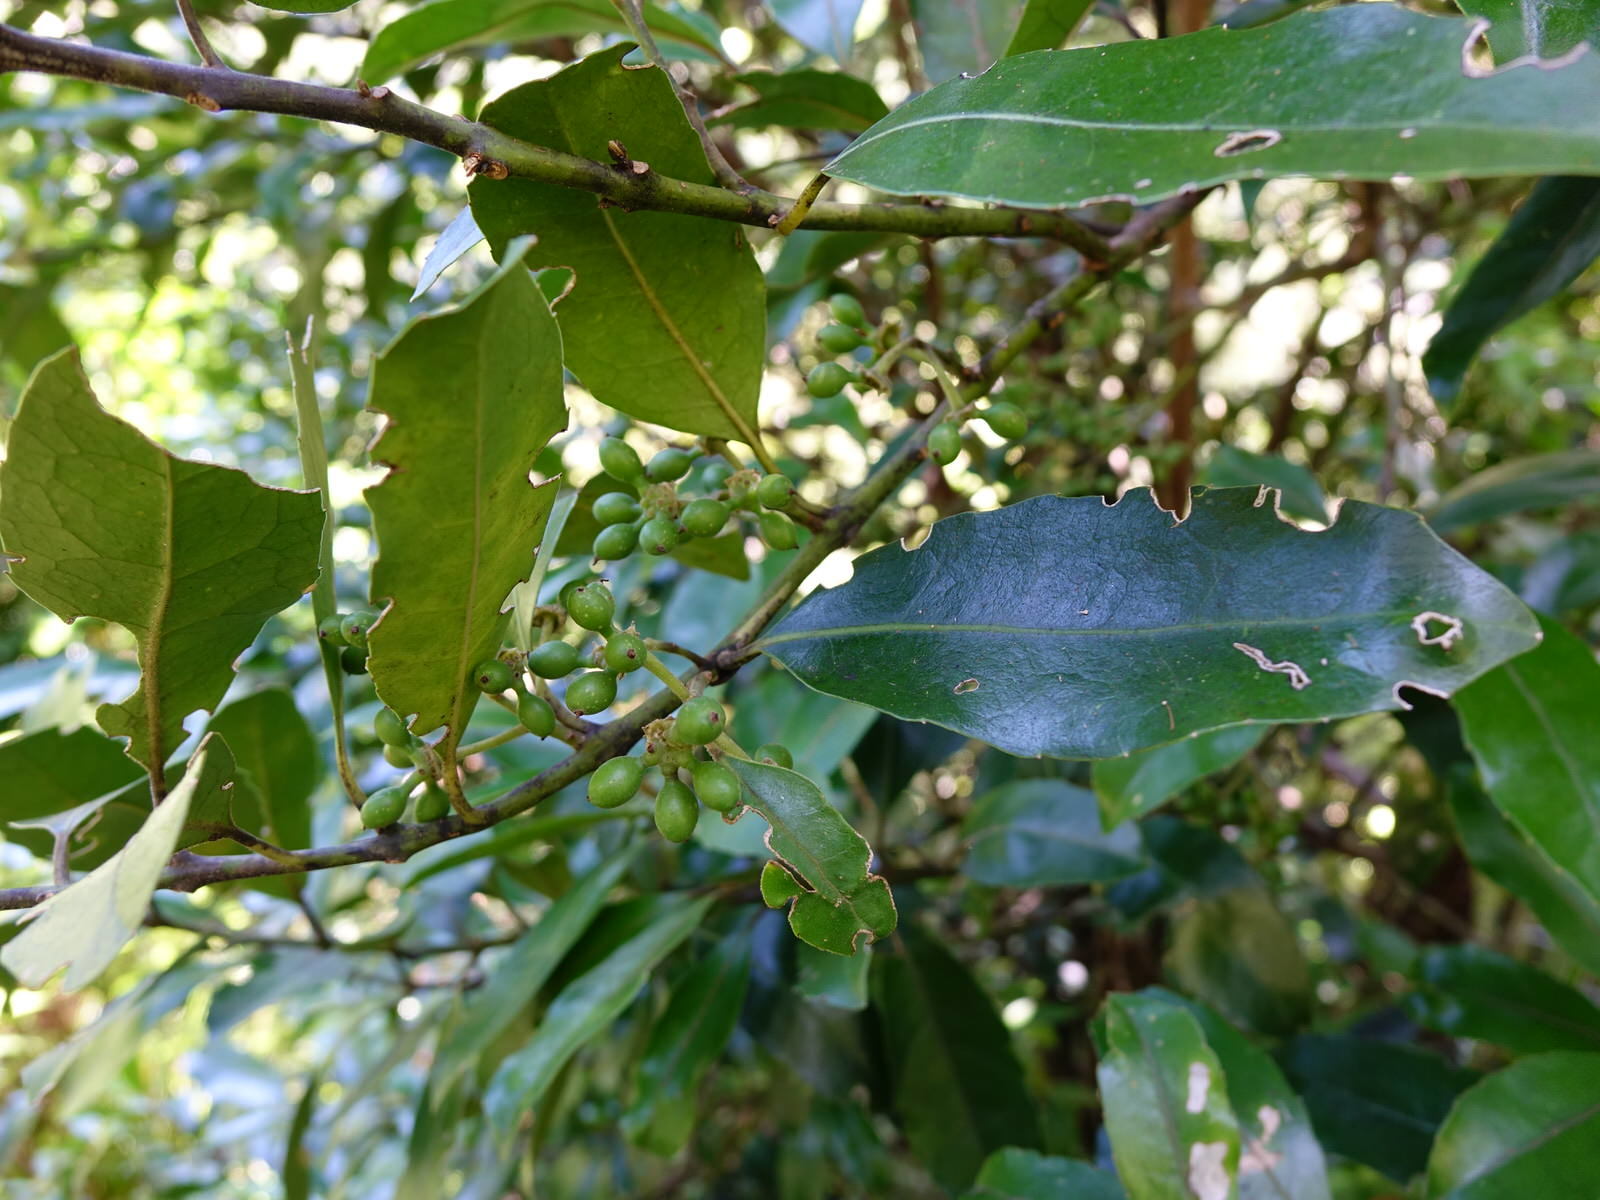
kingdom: Plantae
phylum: Tracheophyta
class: Magnoliopsida
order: Laurales
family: Monimiaceae
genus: Hedycarya
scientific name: Hedycarya arborea
